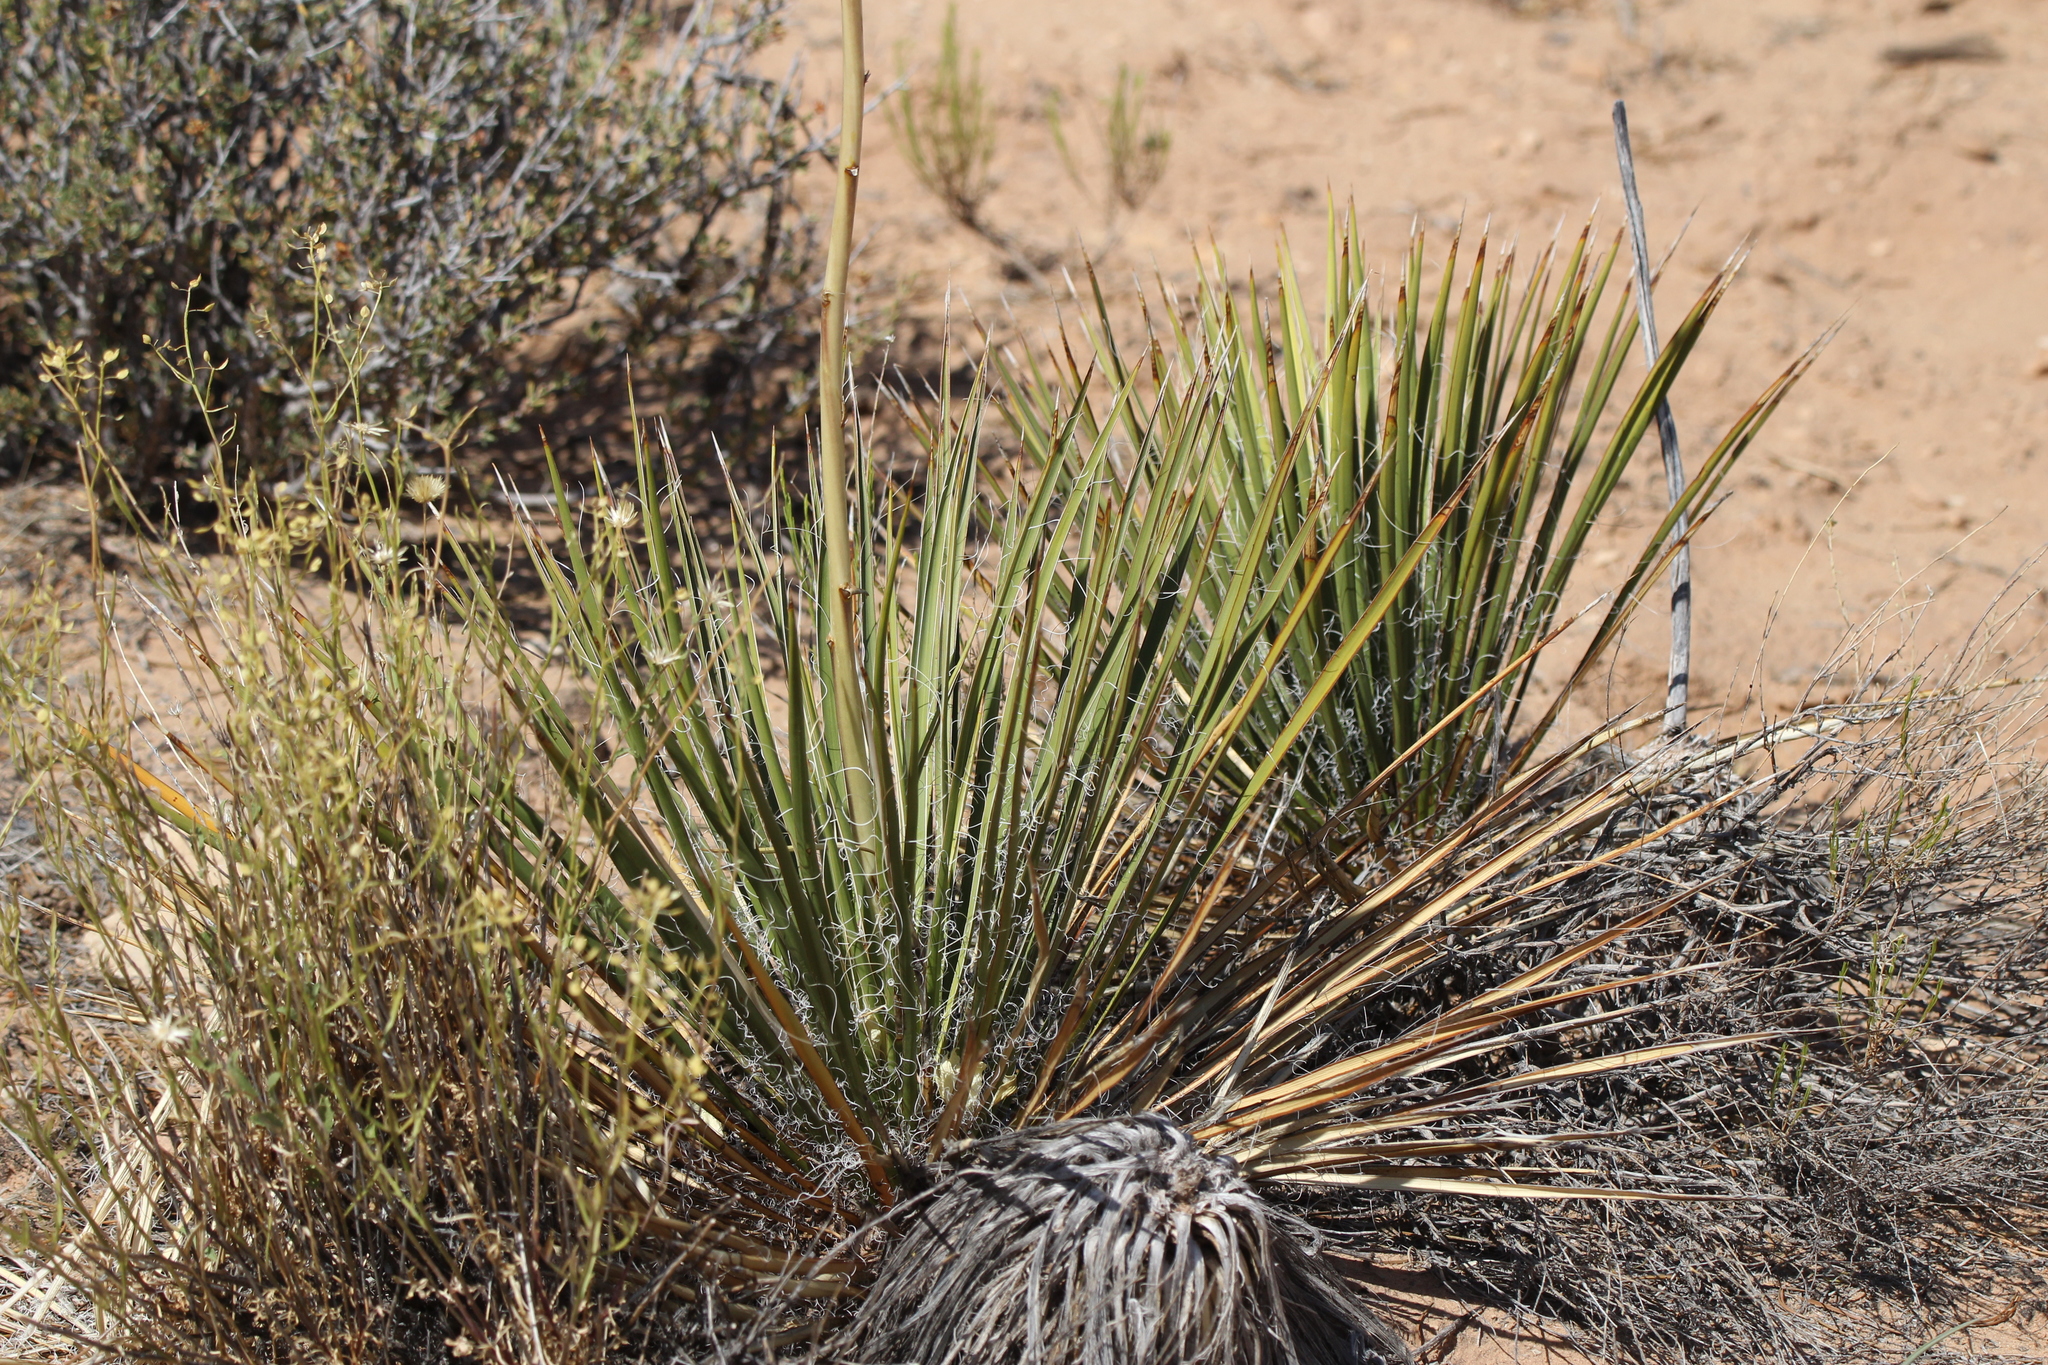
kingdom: Plantae
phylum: Tracheophyta
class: Liliopsida
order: Asparagales
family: Asparagaceae
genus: Yucca
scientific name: Yucca angustissima
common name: Narrowleaf yucca
